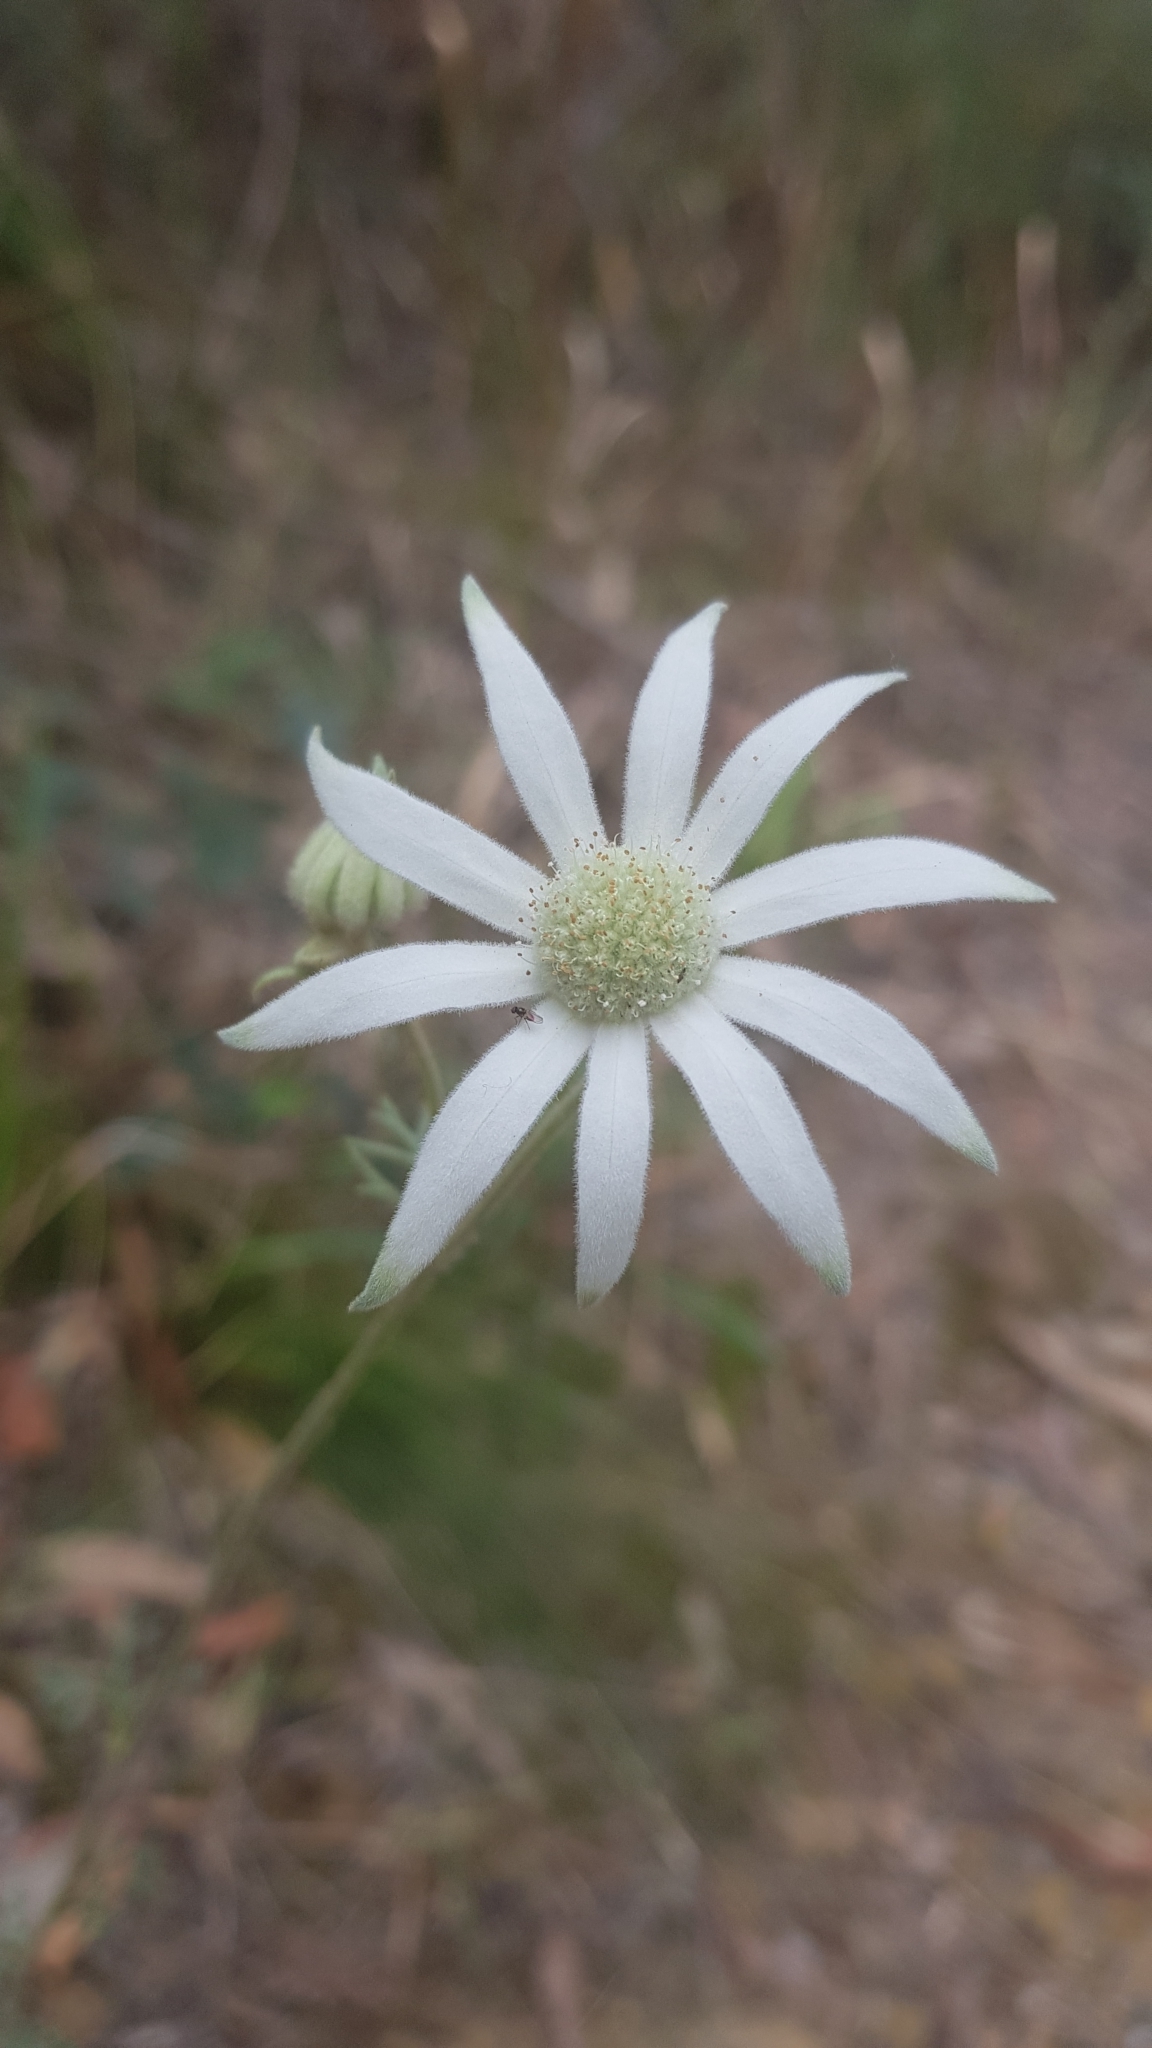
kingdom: Plantae
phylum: Tracheophyta
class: Magnoliopsida
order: Apiales
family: Apiaceae
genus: Actinotus
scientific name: Actinotus helianthi
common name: Flannel-flower
